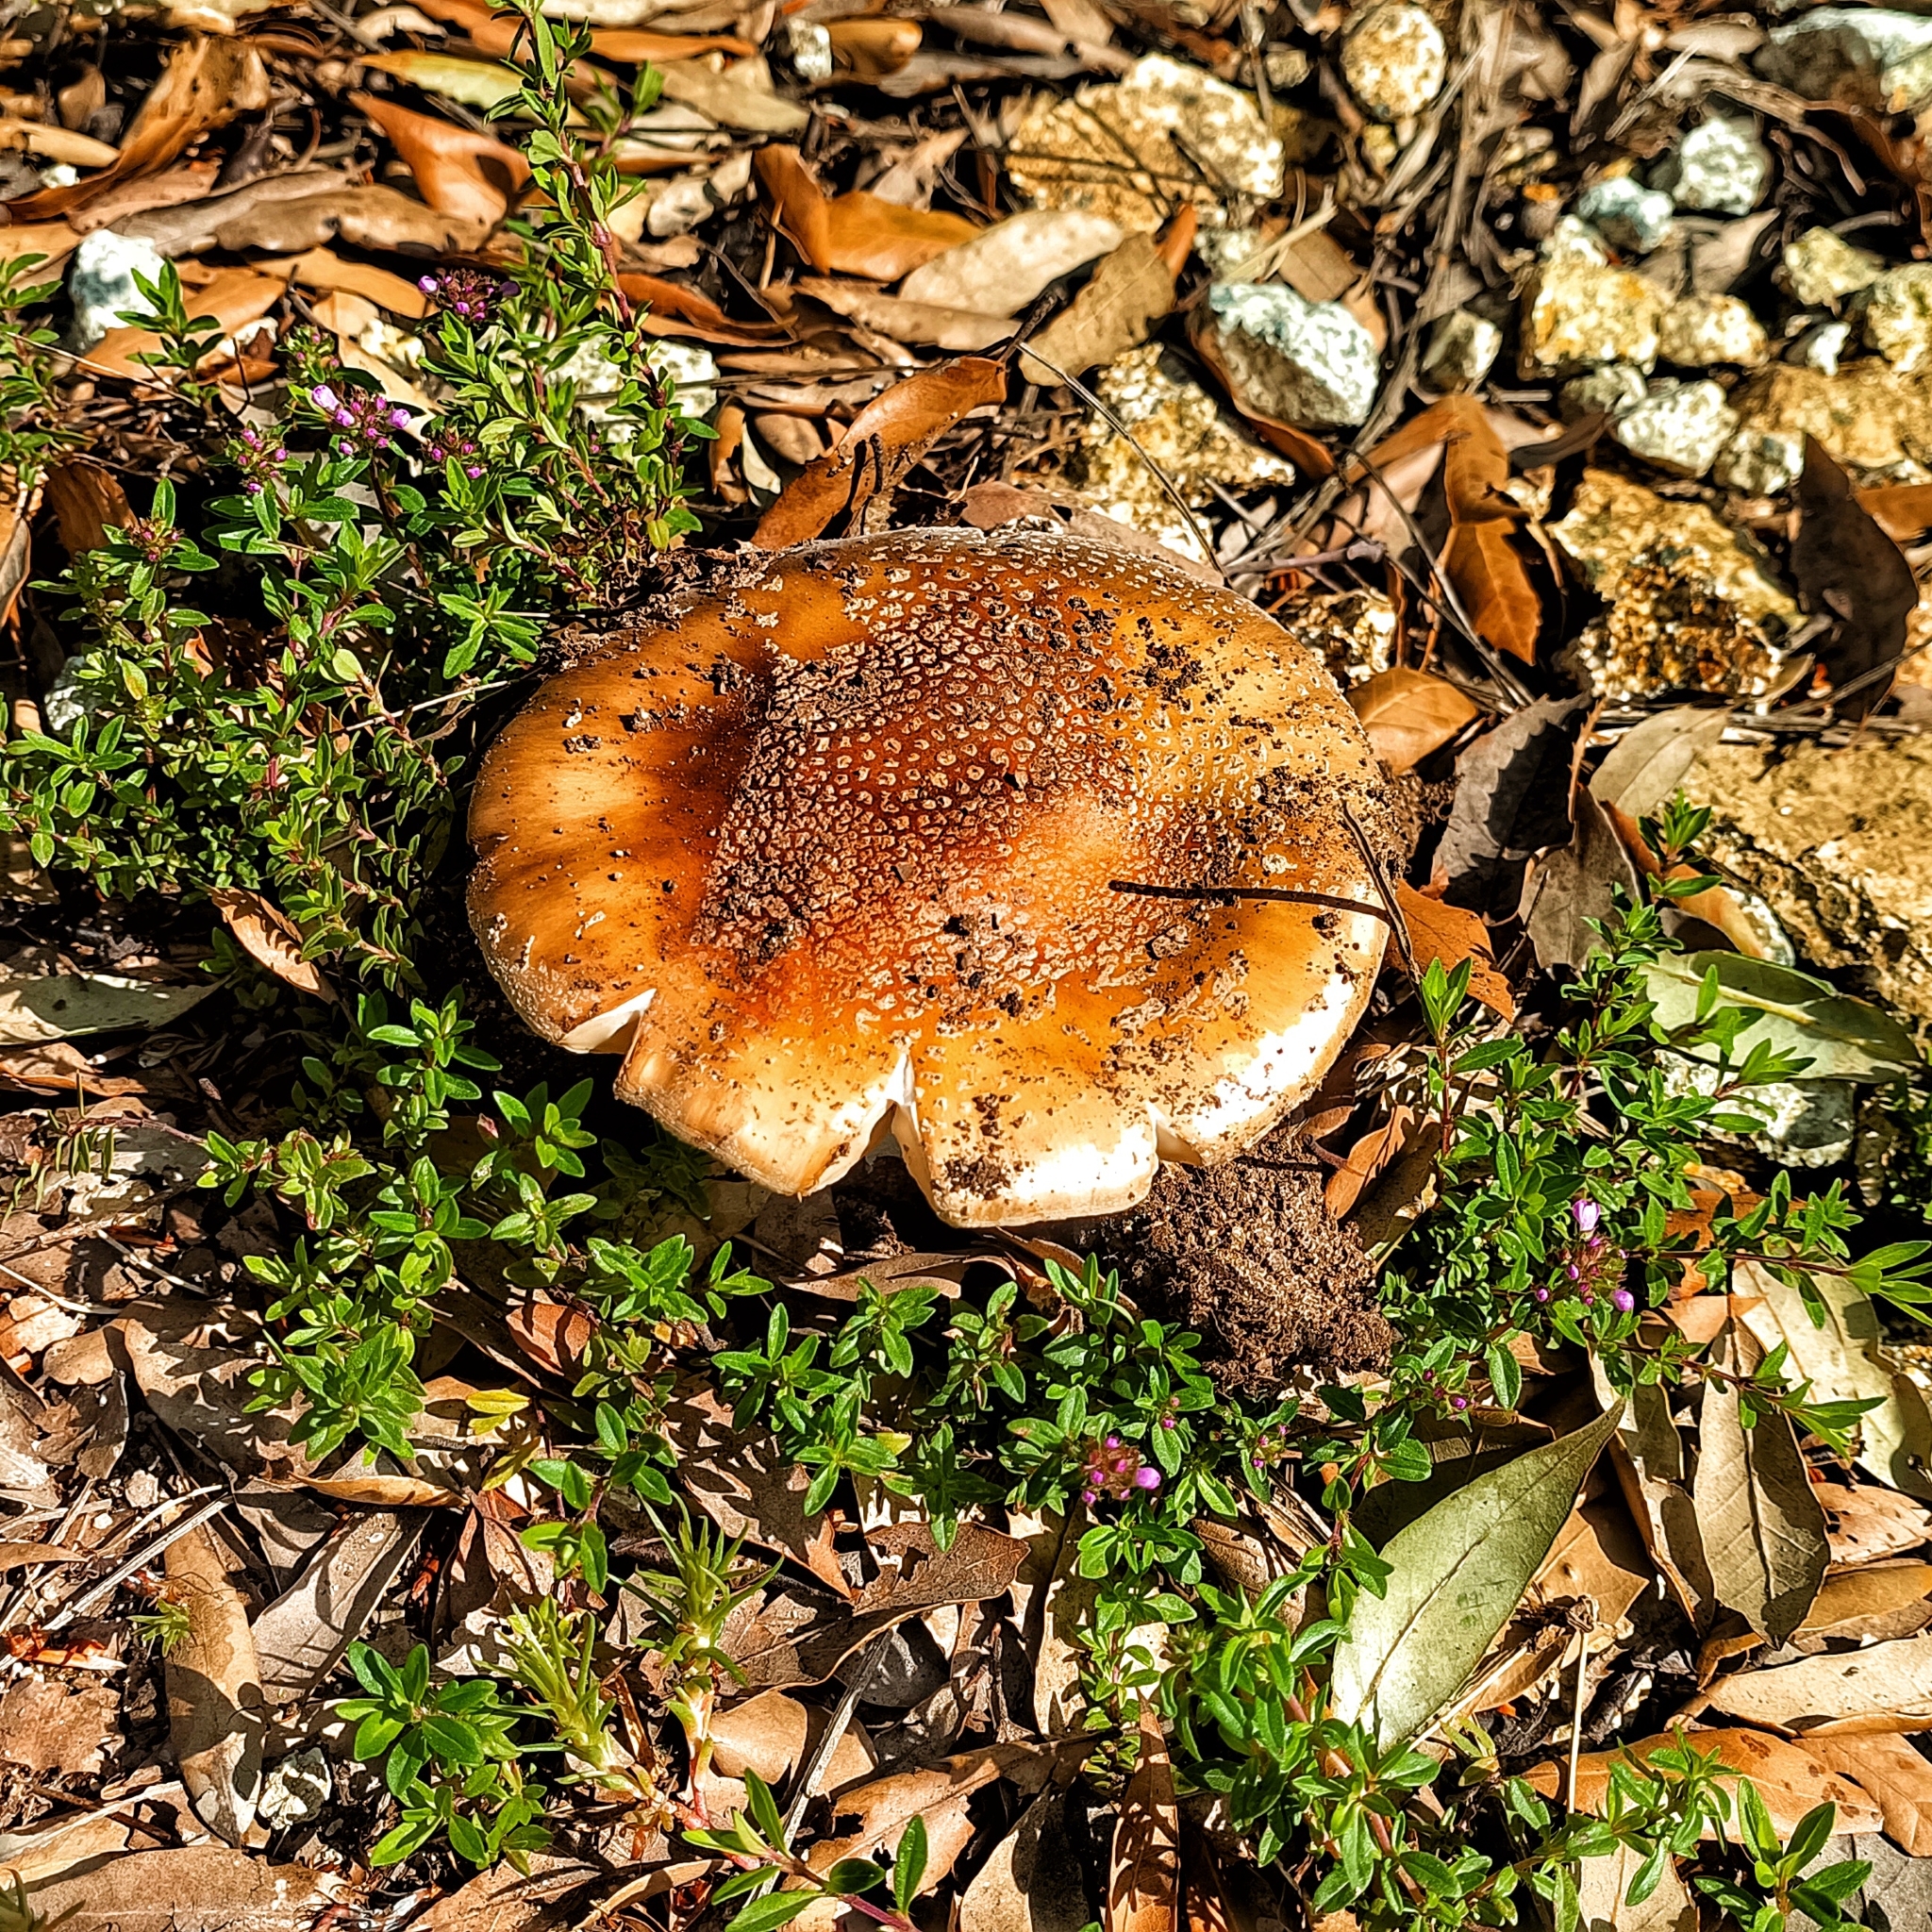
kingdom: Fungi
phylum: Basidiomycota
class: Agaricomycetes
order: Agaricales
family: Amanitaceae
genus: Amanita
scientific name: Amanita rubescens
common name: Blusher
